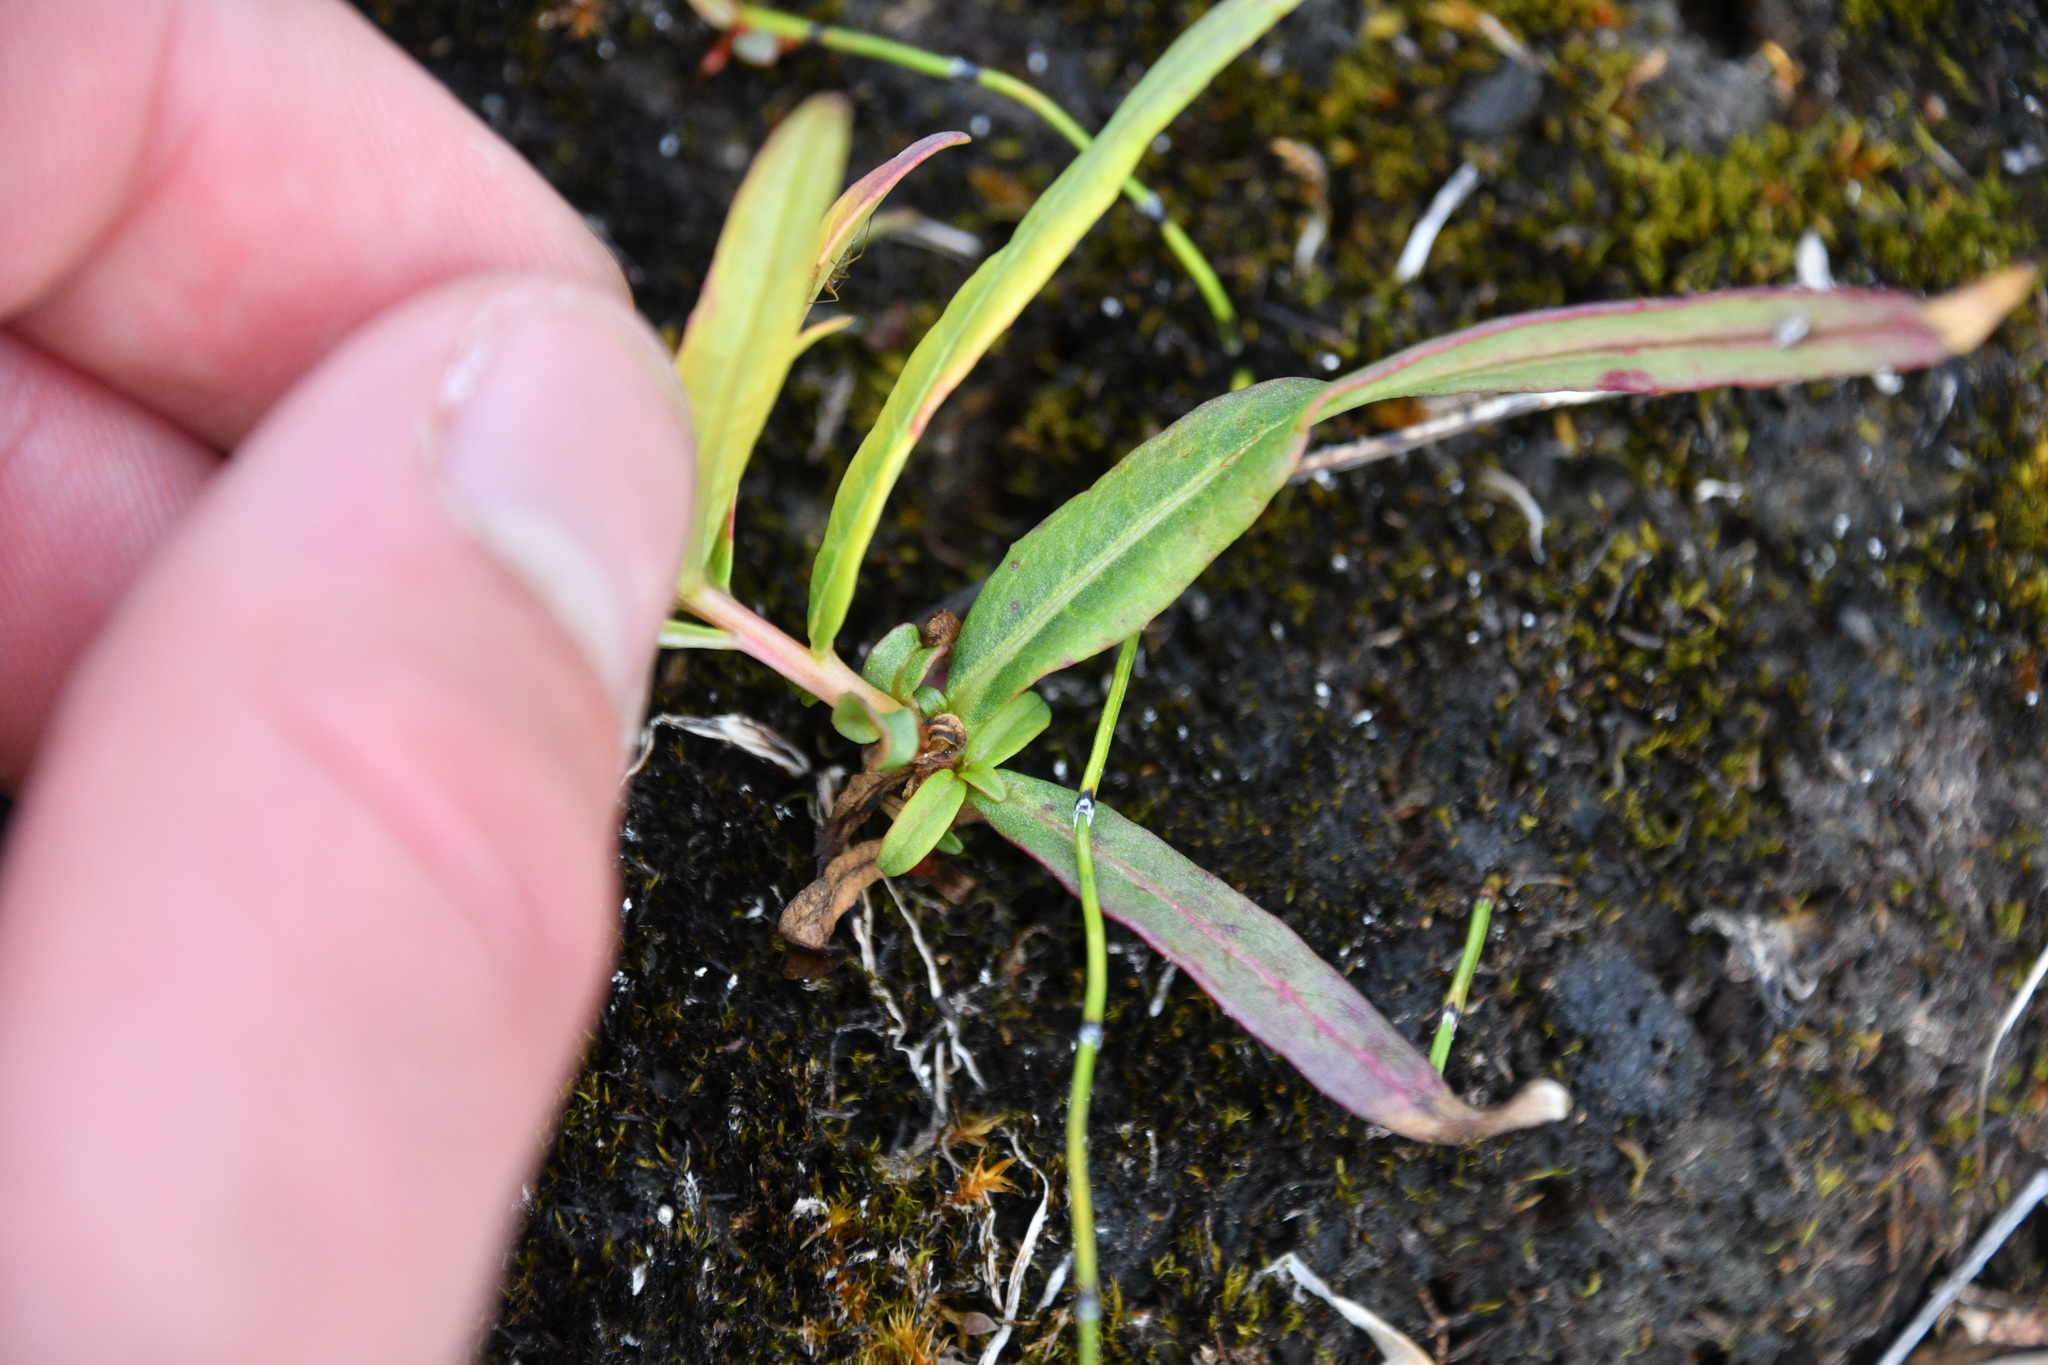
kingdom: Plantae
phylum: Tracheophyta
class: Magnoliopsida
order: Myrtales
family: Onagraceae
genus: Chamaenerion
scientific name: Chamaenerion angustifolium
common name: Fireweed
